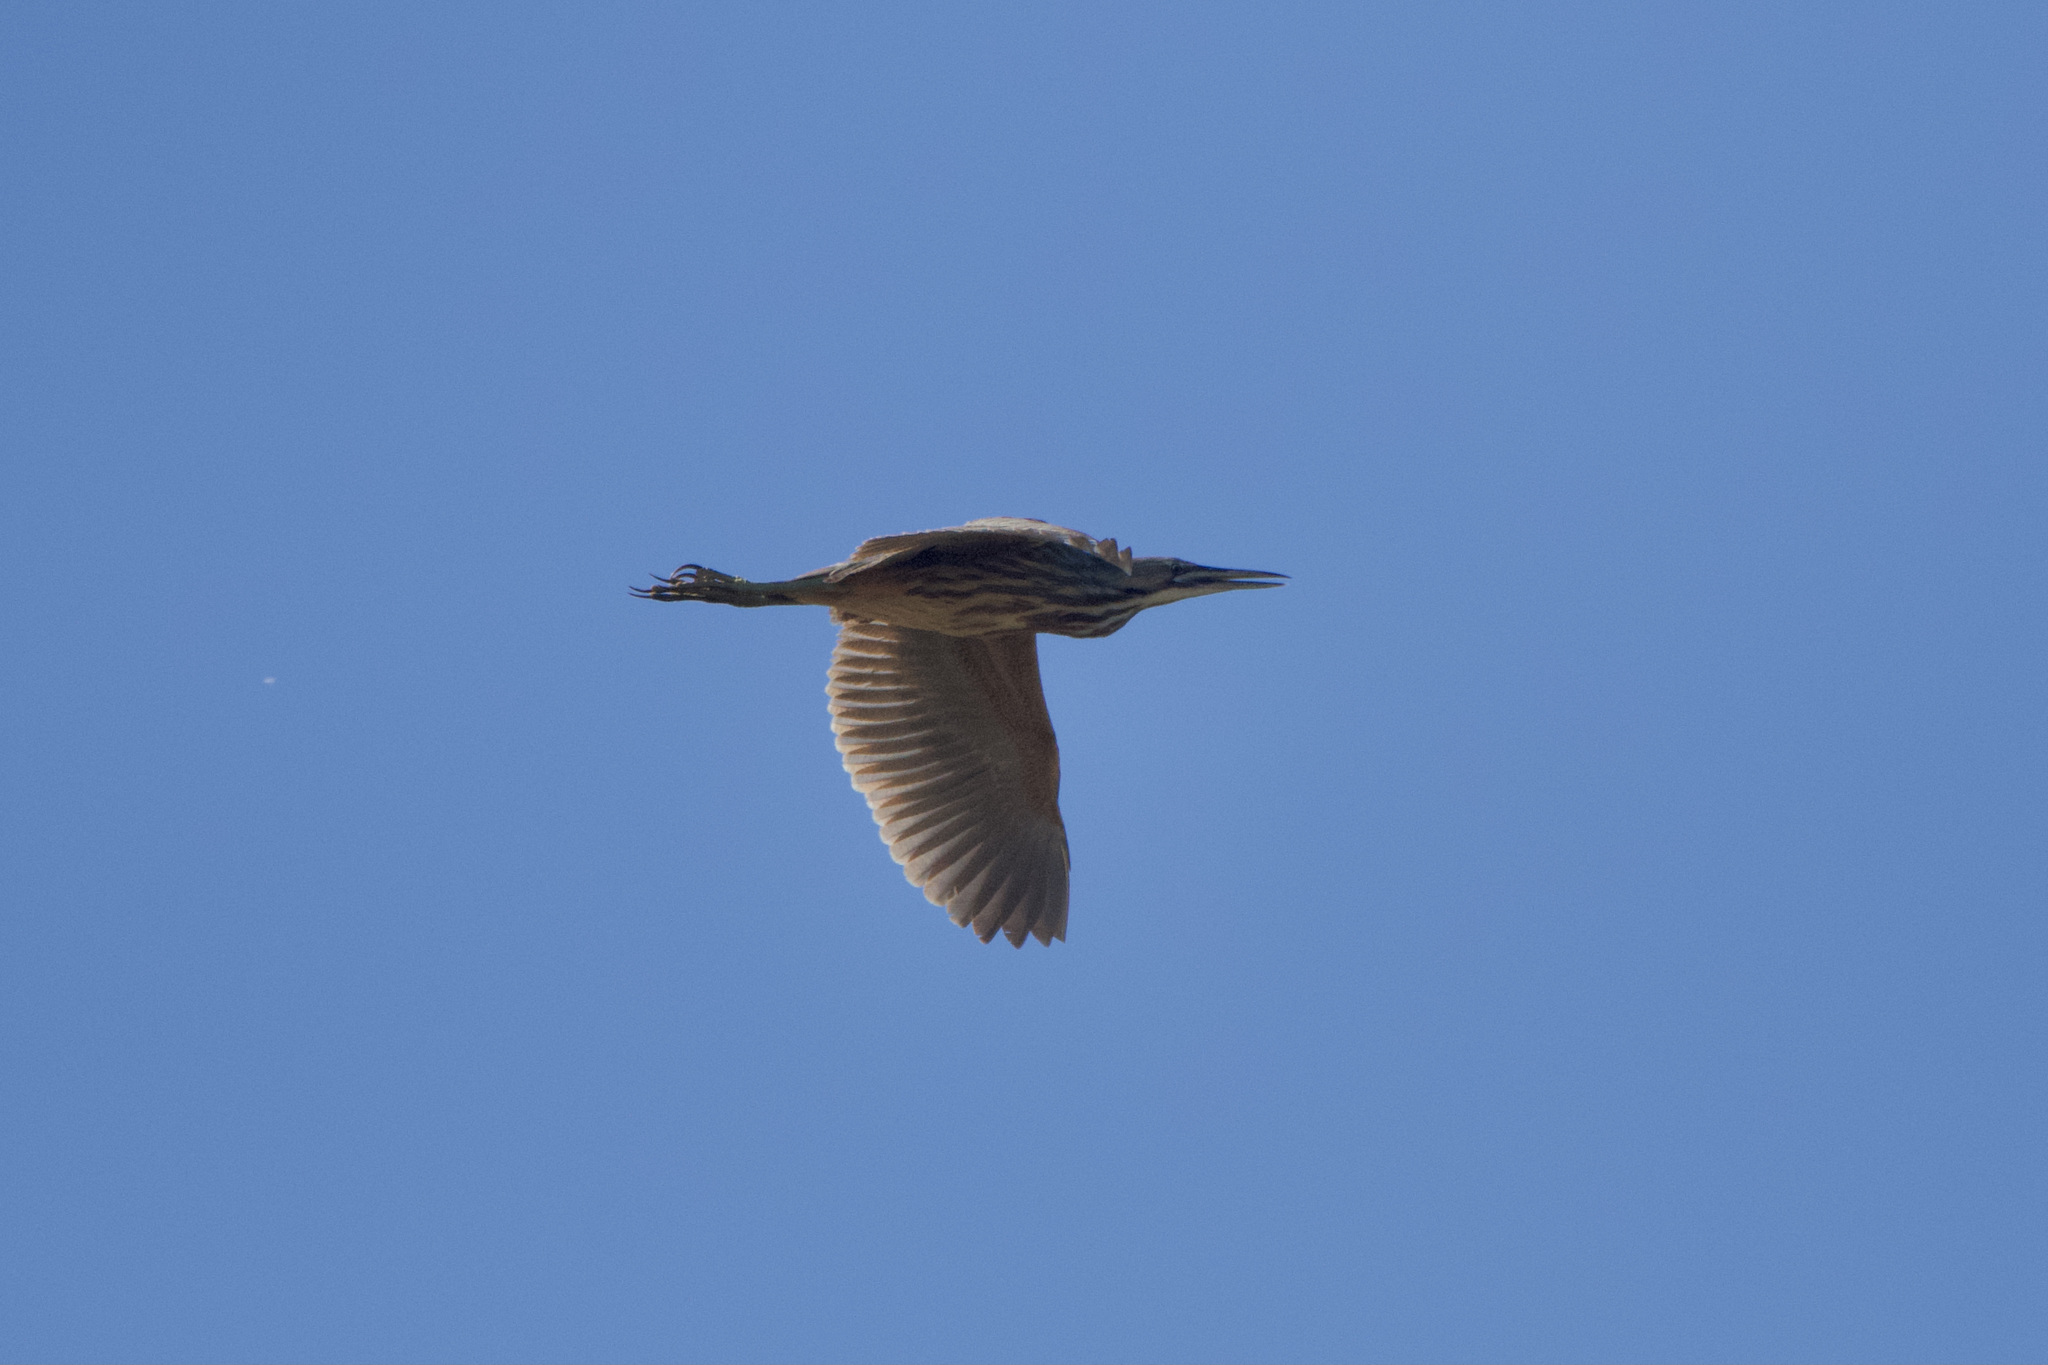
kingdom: Animalia
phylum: Chordata
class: Aves
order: Pelecaniformes
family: Ardeidae
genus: Botaurus
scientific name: Botaurus lentiginosus
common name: American bittern
